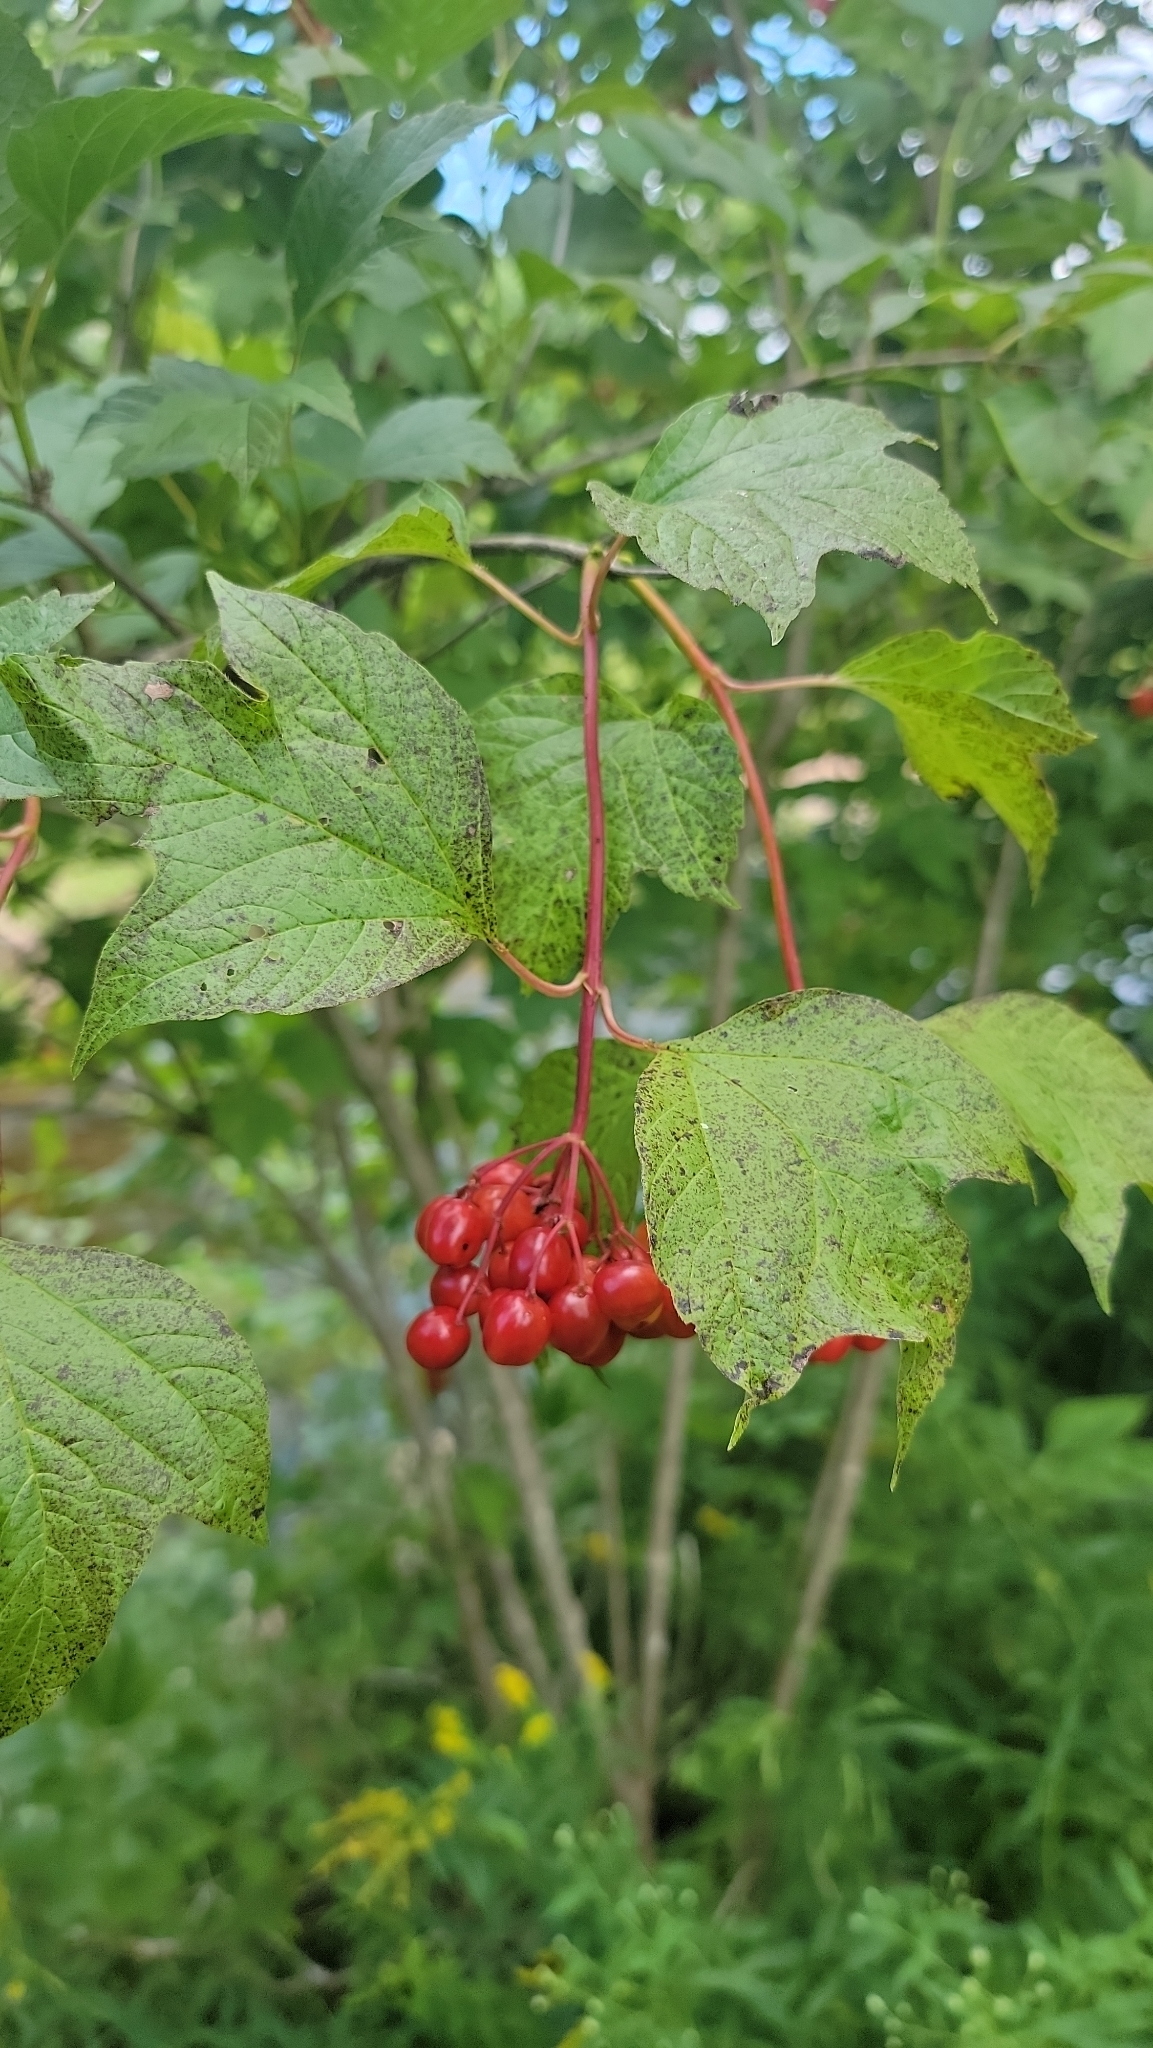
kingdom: Plantae
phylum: Tracheophyta
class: Magnoliopsida
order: Dipsacales
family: Viburnaceae
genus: Viburnum
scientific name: Viburnum opulus
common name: Guelder-rose
